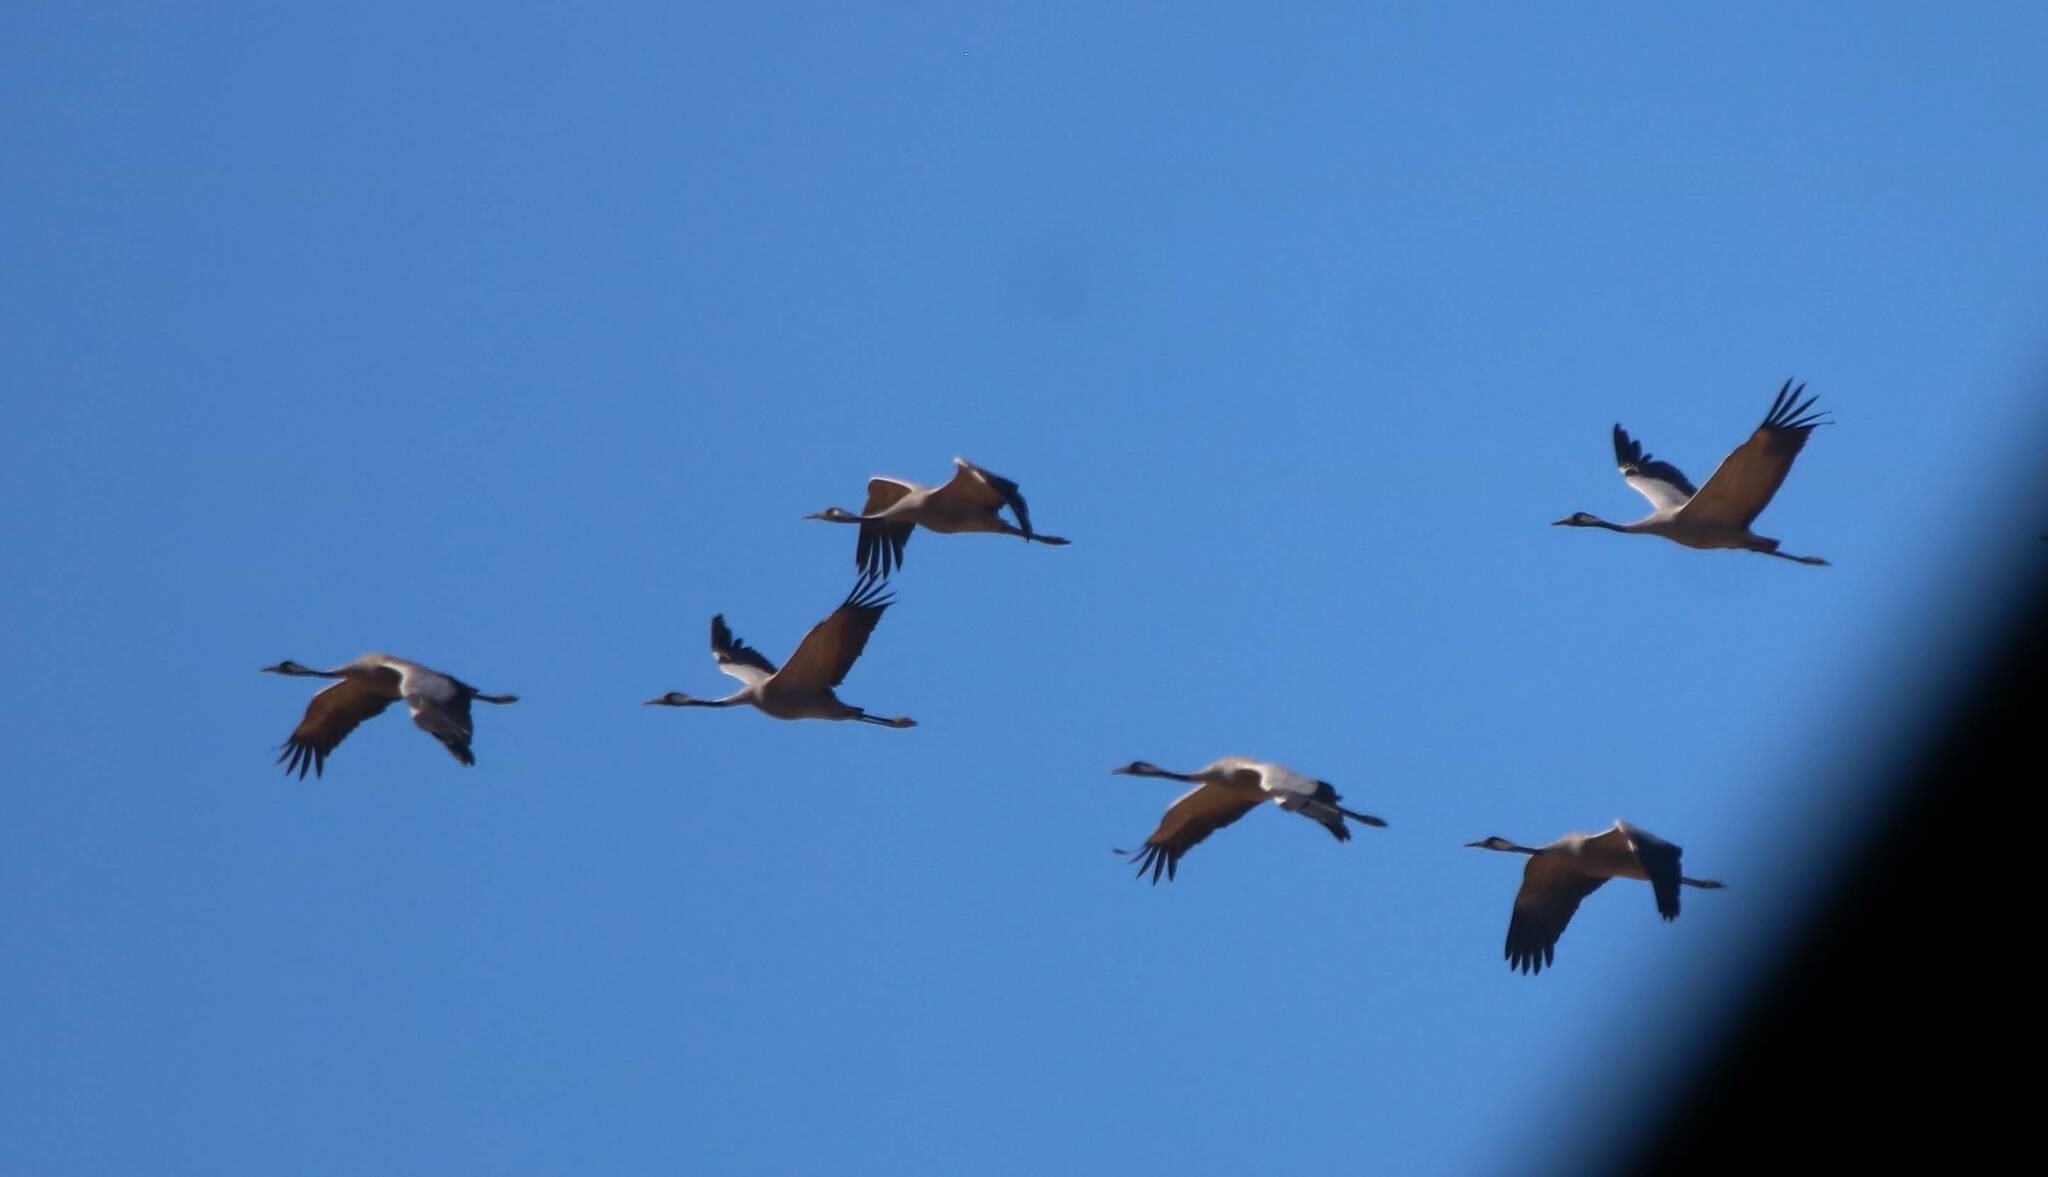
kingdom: Animalia
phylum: Chordata
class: Aves
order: Gruiformes
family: Gruidae
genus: Grus
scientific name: Grus grus
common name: Common crane
